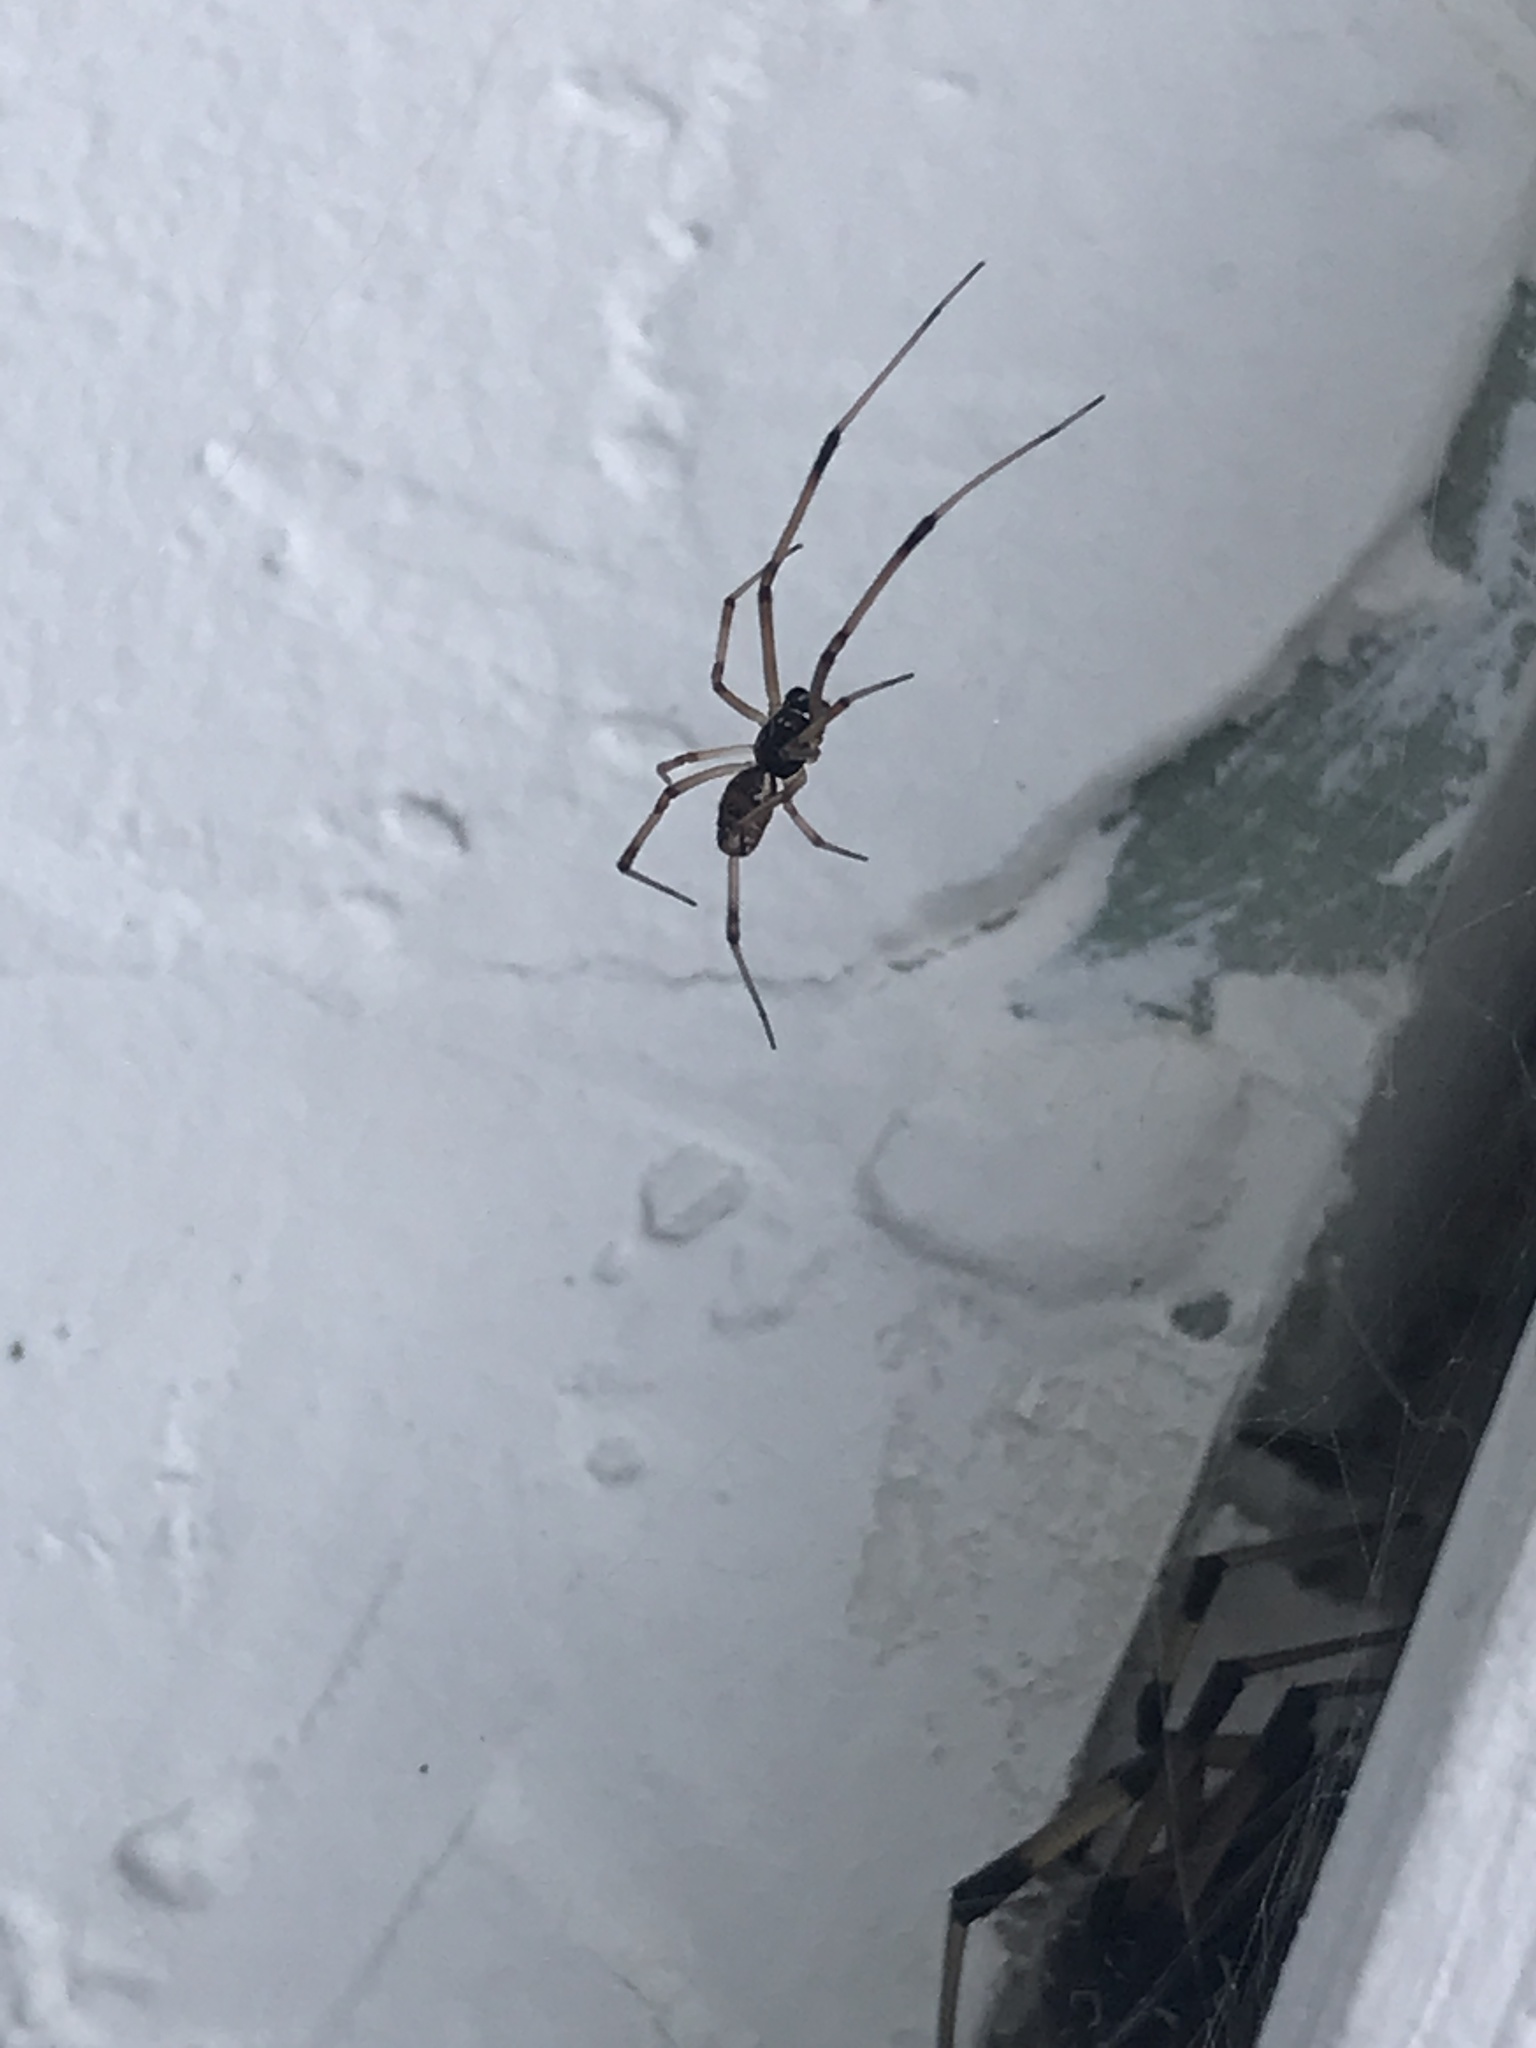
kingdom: Animalia
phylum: Arthropoda
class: Arachnida
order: Araneae
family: Theridiidae
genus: Latrodectus
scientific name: Latrodectus geometricus
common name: Brown widow spider
